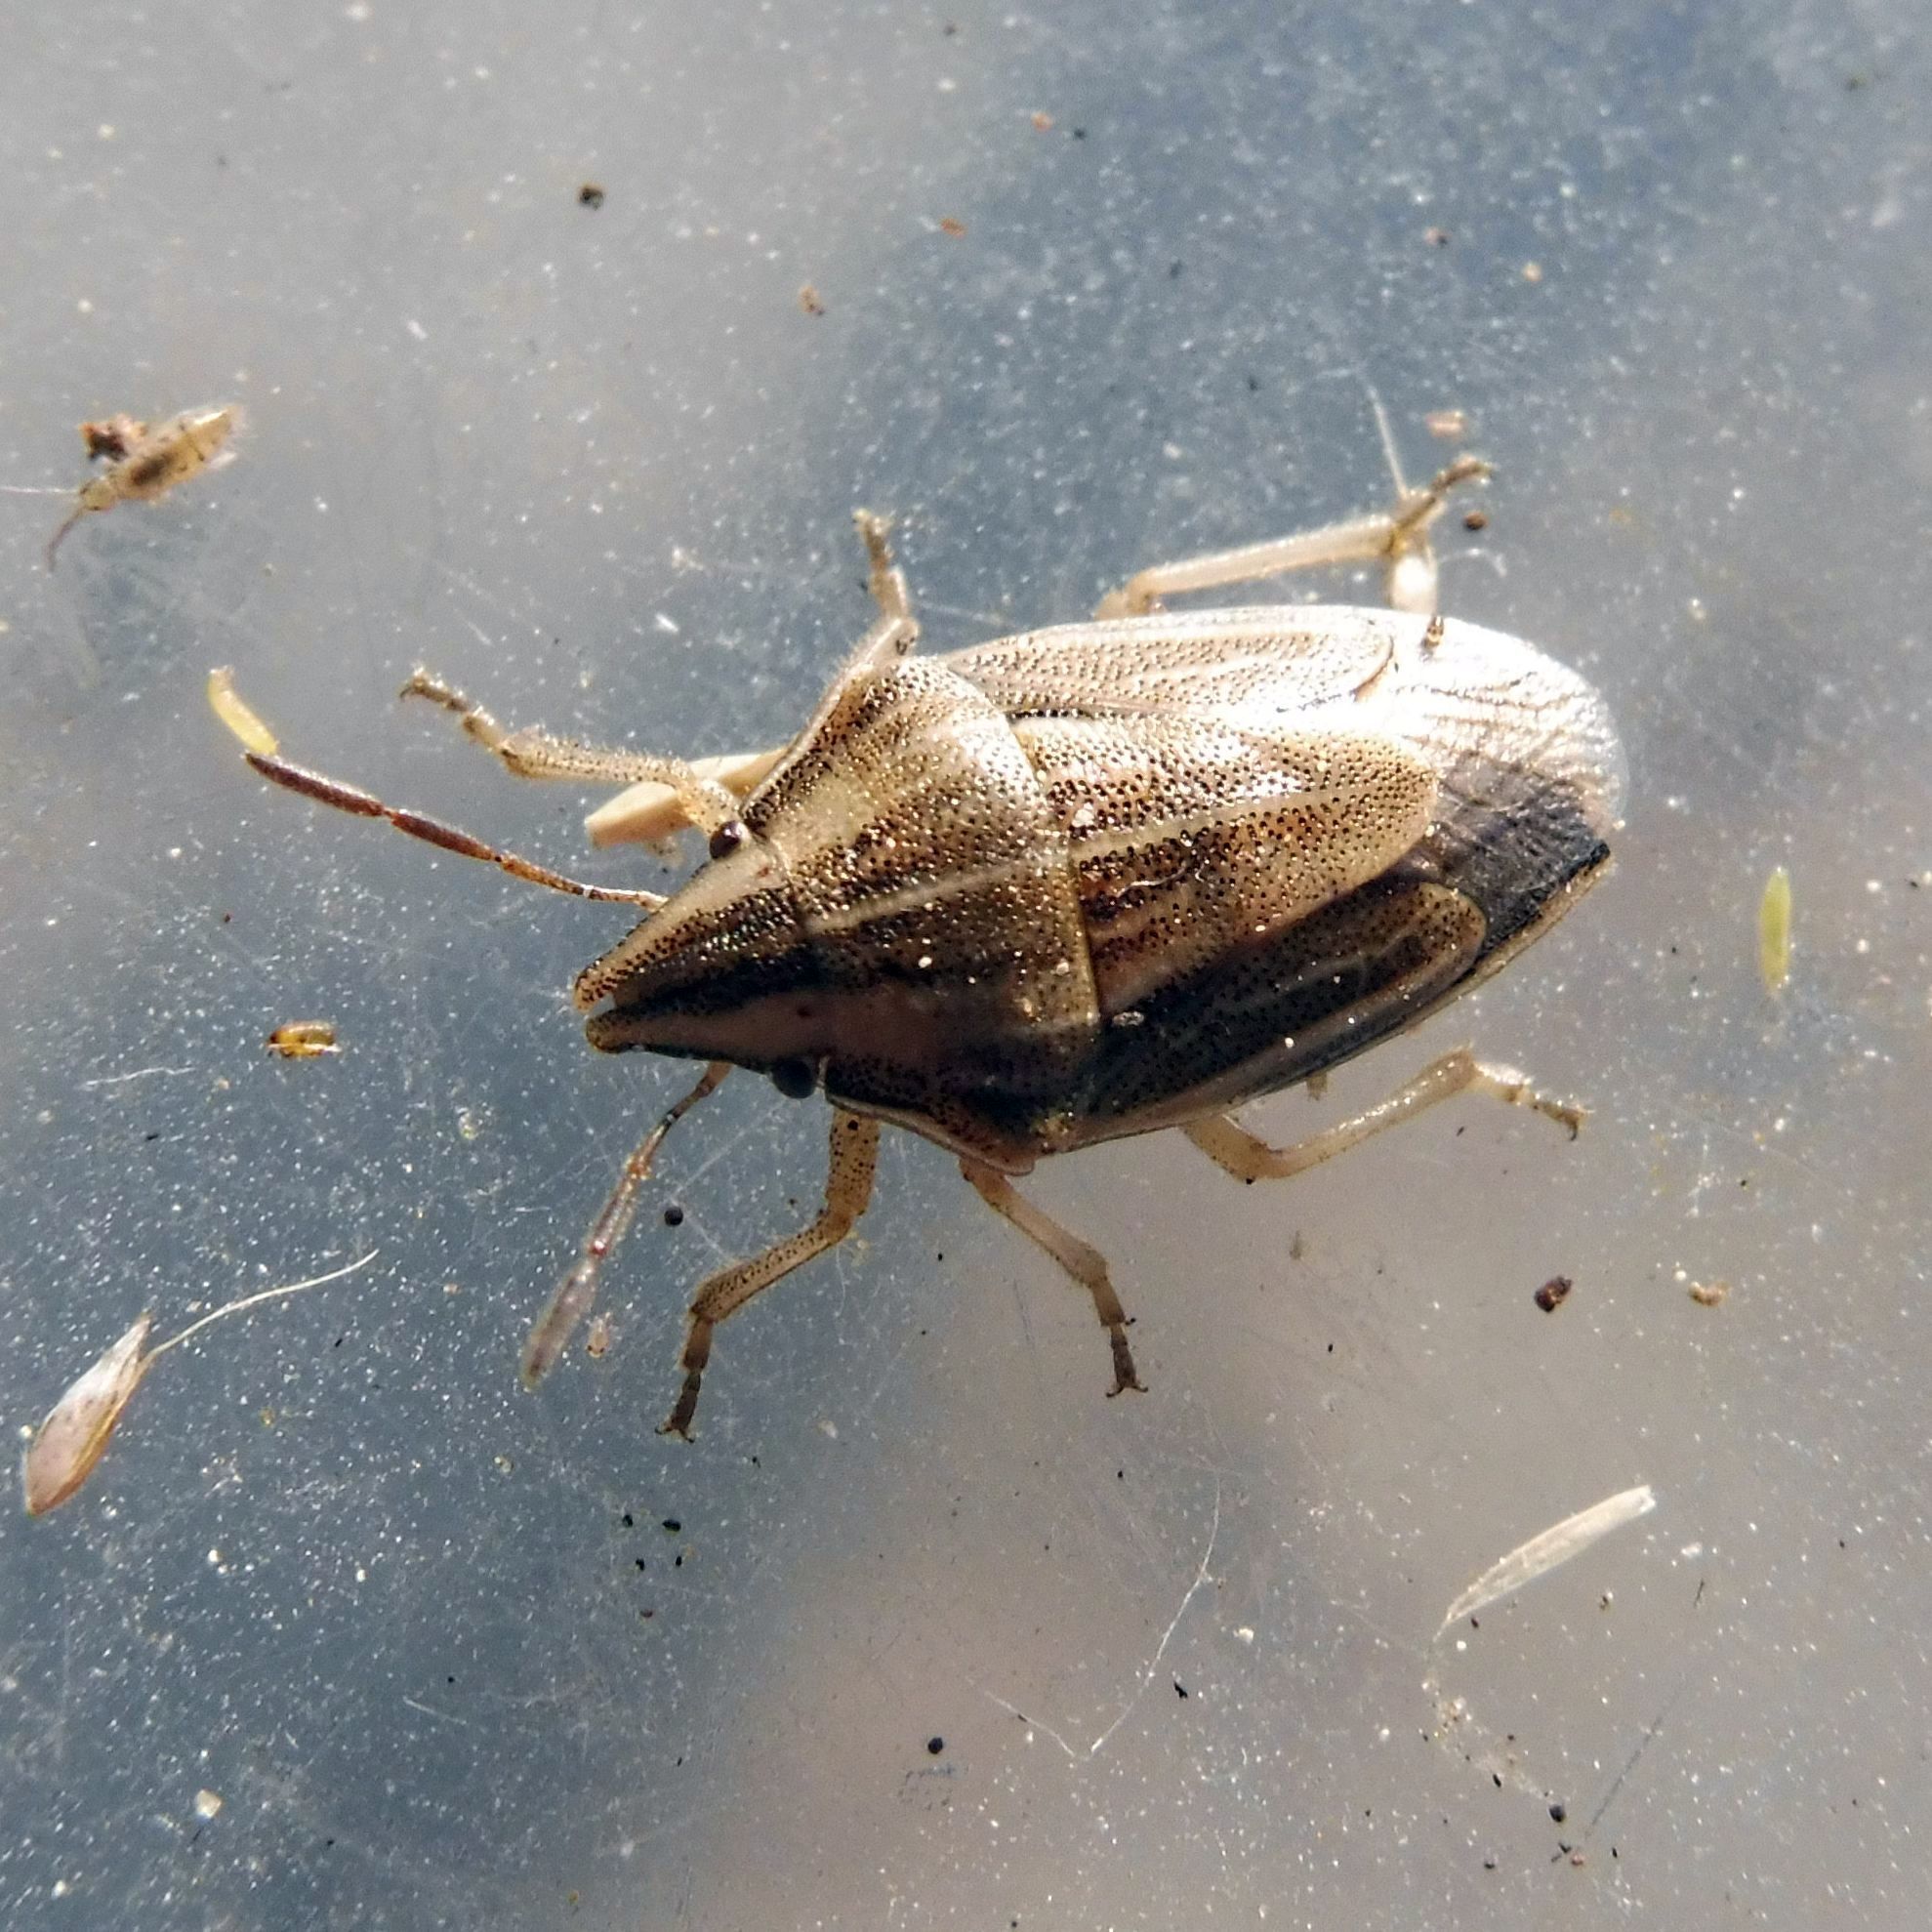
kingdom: Animalia
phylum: Arthropoda
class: Insecta
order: Hemiptera
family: Pentatomidae
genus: Aelia
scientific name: Aelia acuminata
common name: Bishop's mitre
